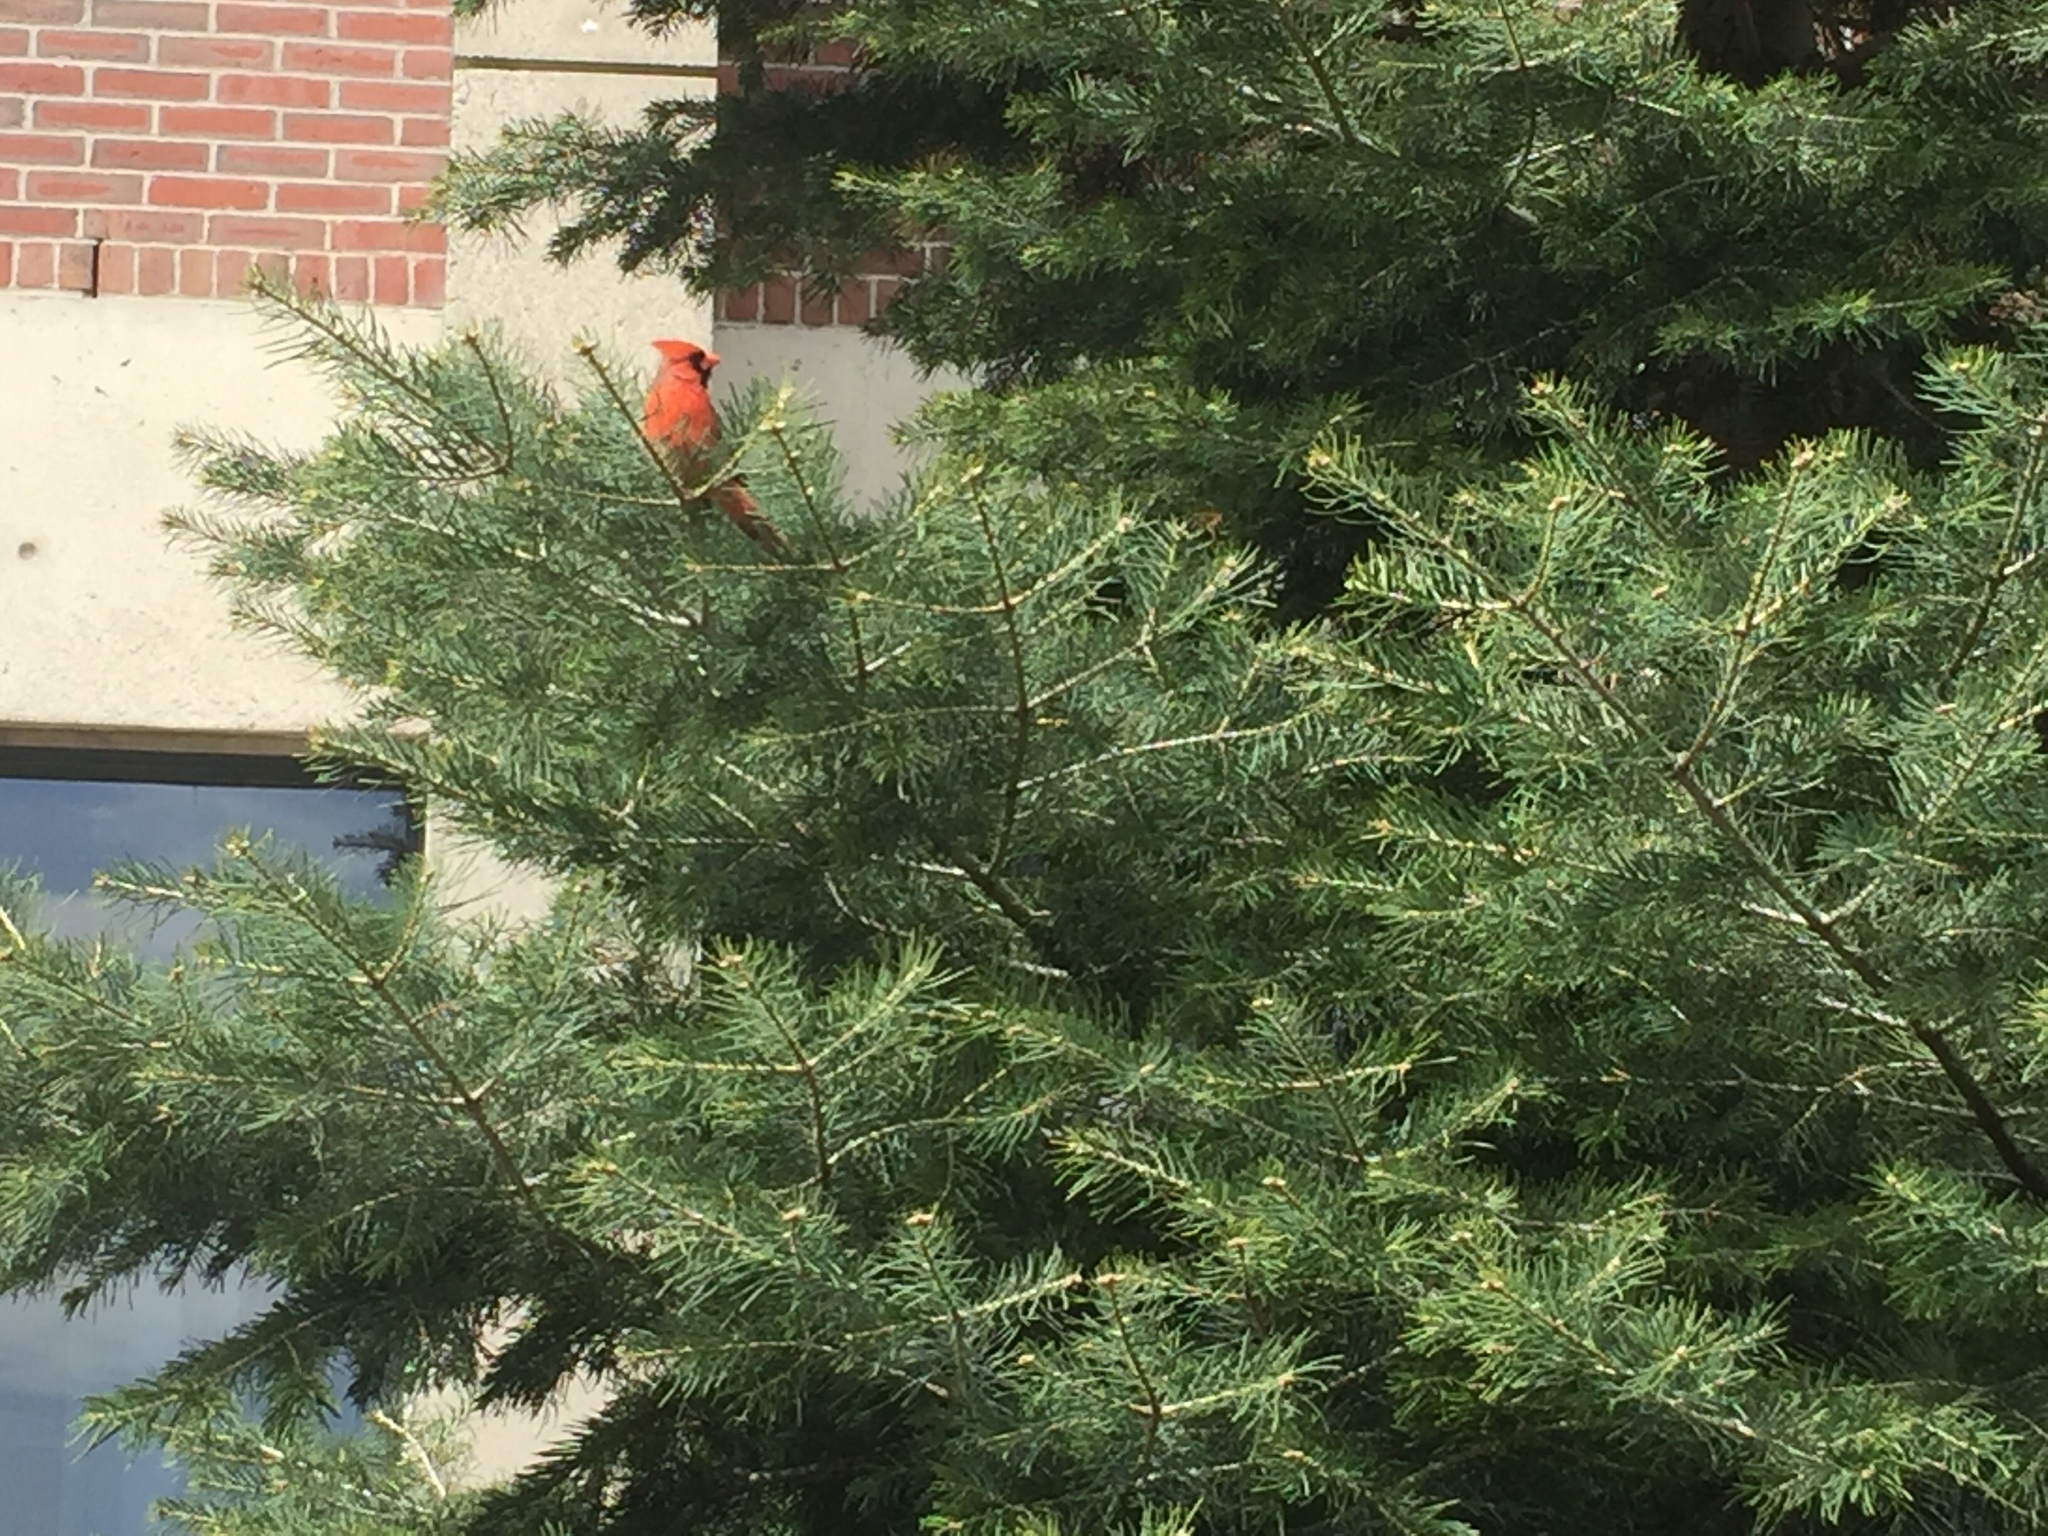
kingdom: Animalia
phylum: Chordata
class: Aves
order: Passeriformes
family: Cardinalidae
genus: Cardinalis
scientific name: Cardinalis cardinalis
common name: Northern cardinal
